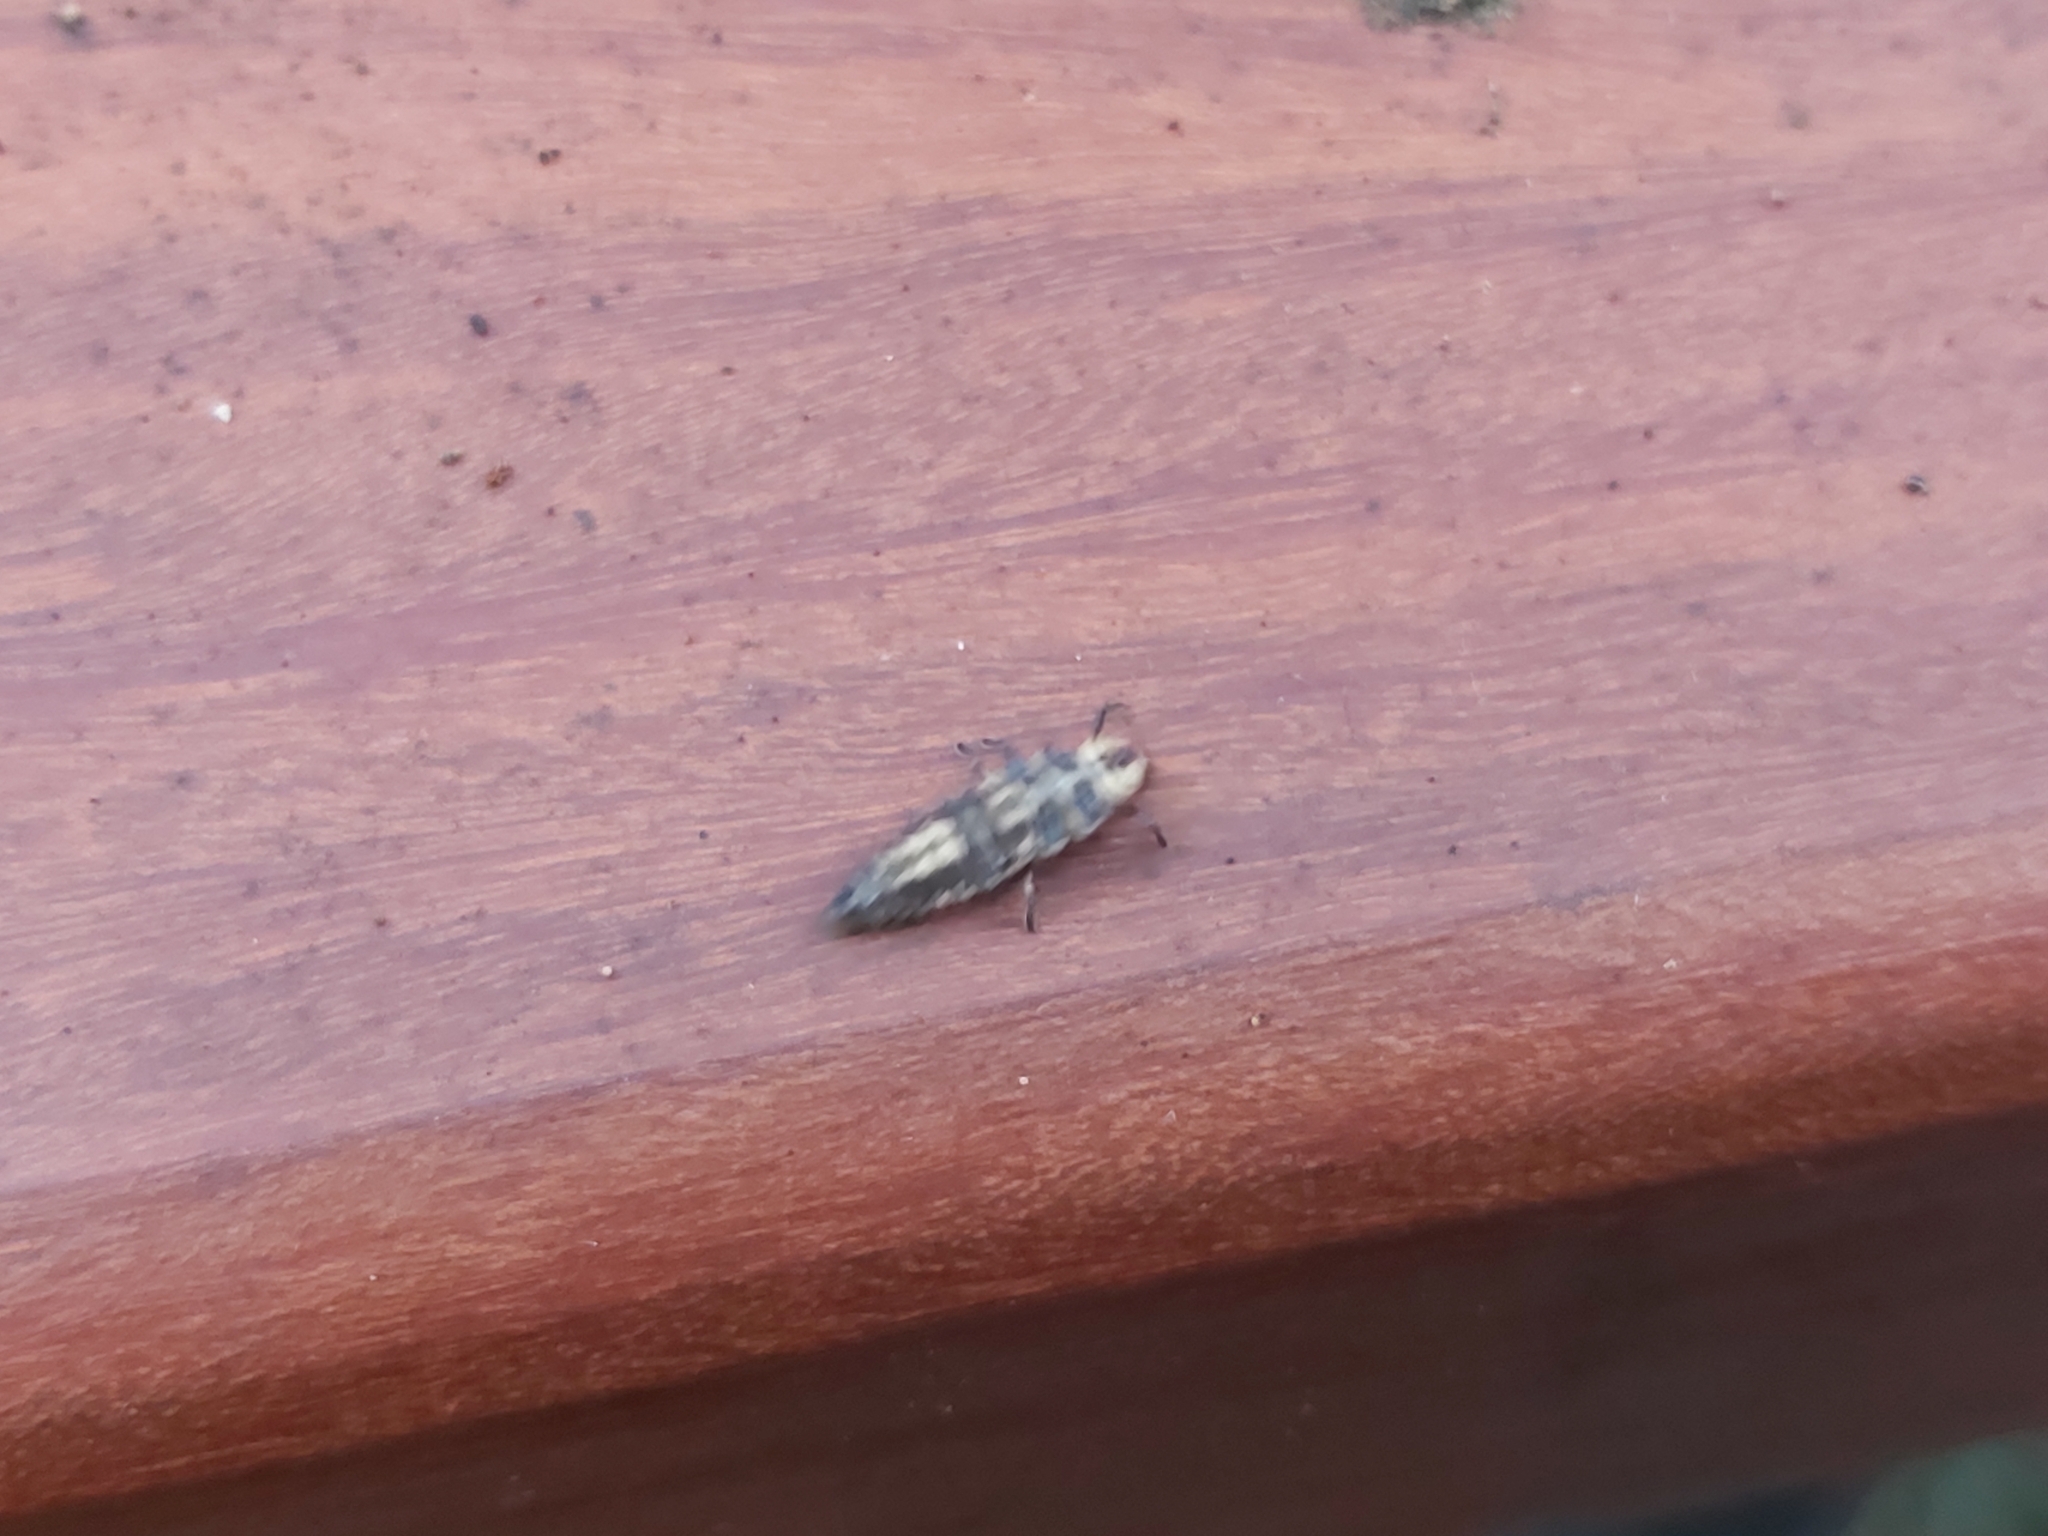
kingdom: Animalia
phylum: Arthropoda
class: Insecta
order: Coleoptera
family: Coccinellidae
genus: Harmonia
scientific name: Harmonia
